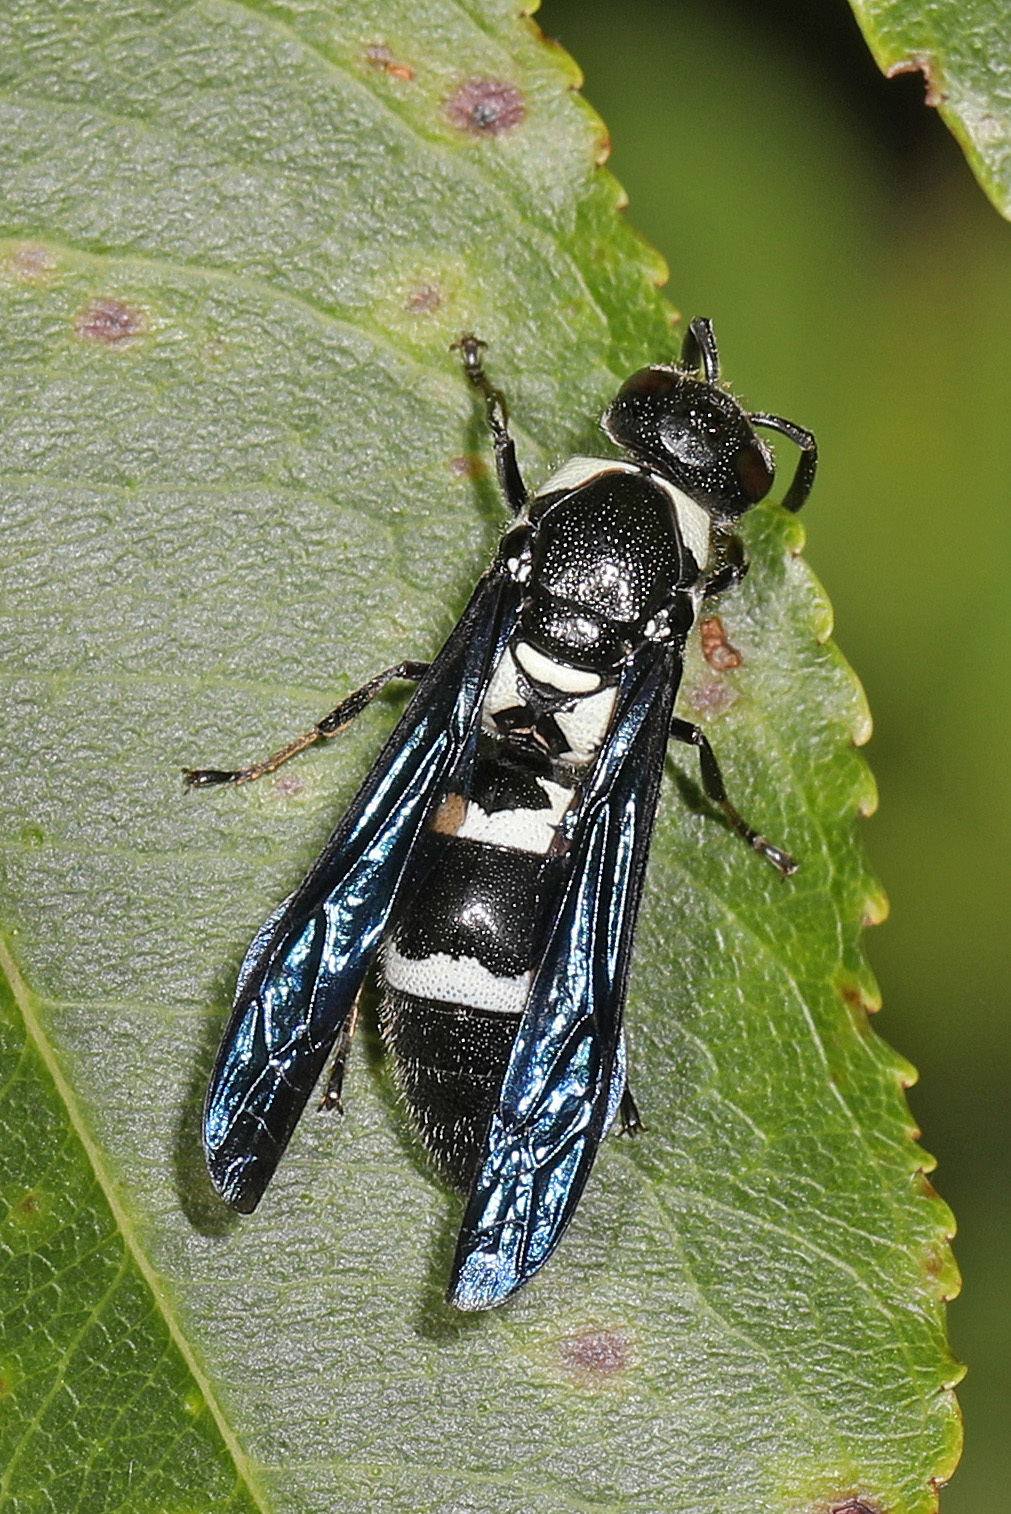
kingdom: Animalia
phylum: Arthropoda
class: Insecta
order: Hymenoptera
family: Eumenidae
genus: Pseudodynerus
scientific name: Pseudodynerus quadrisectus
